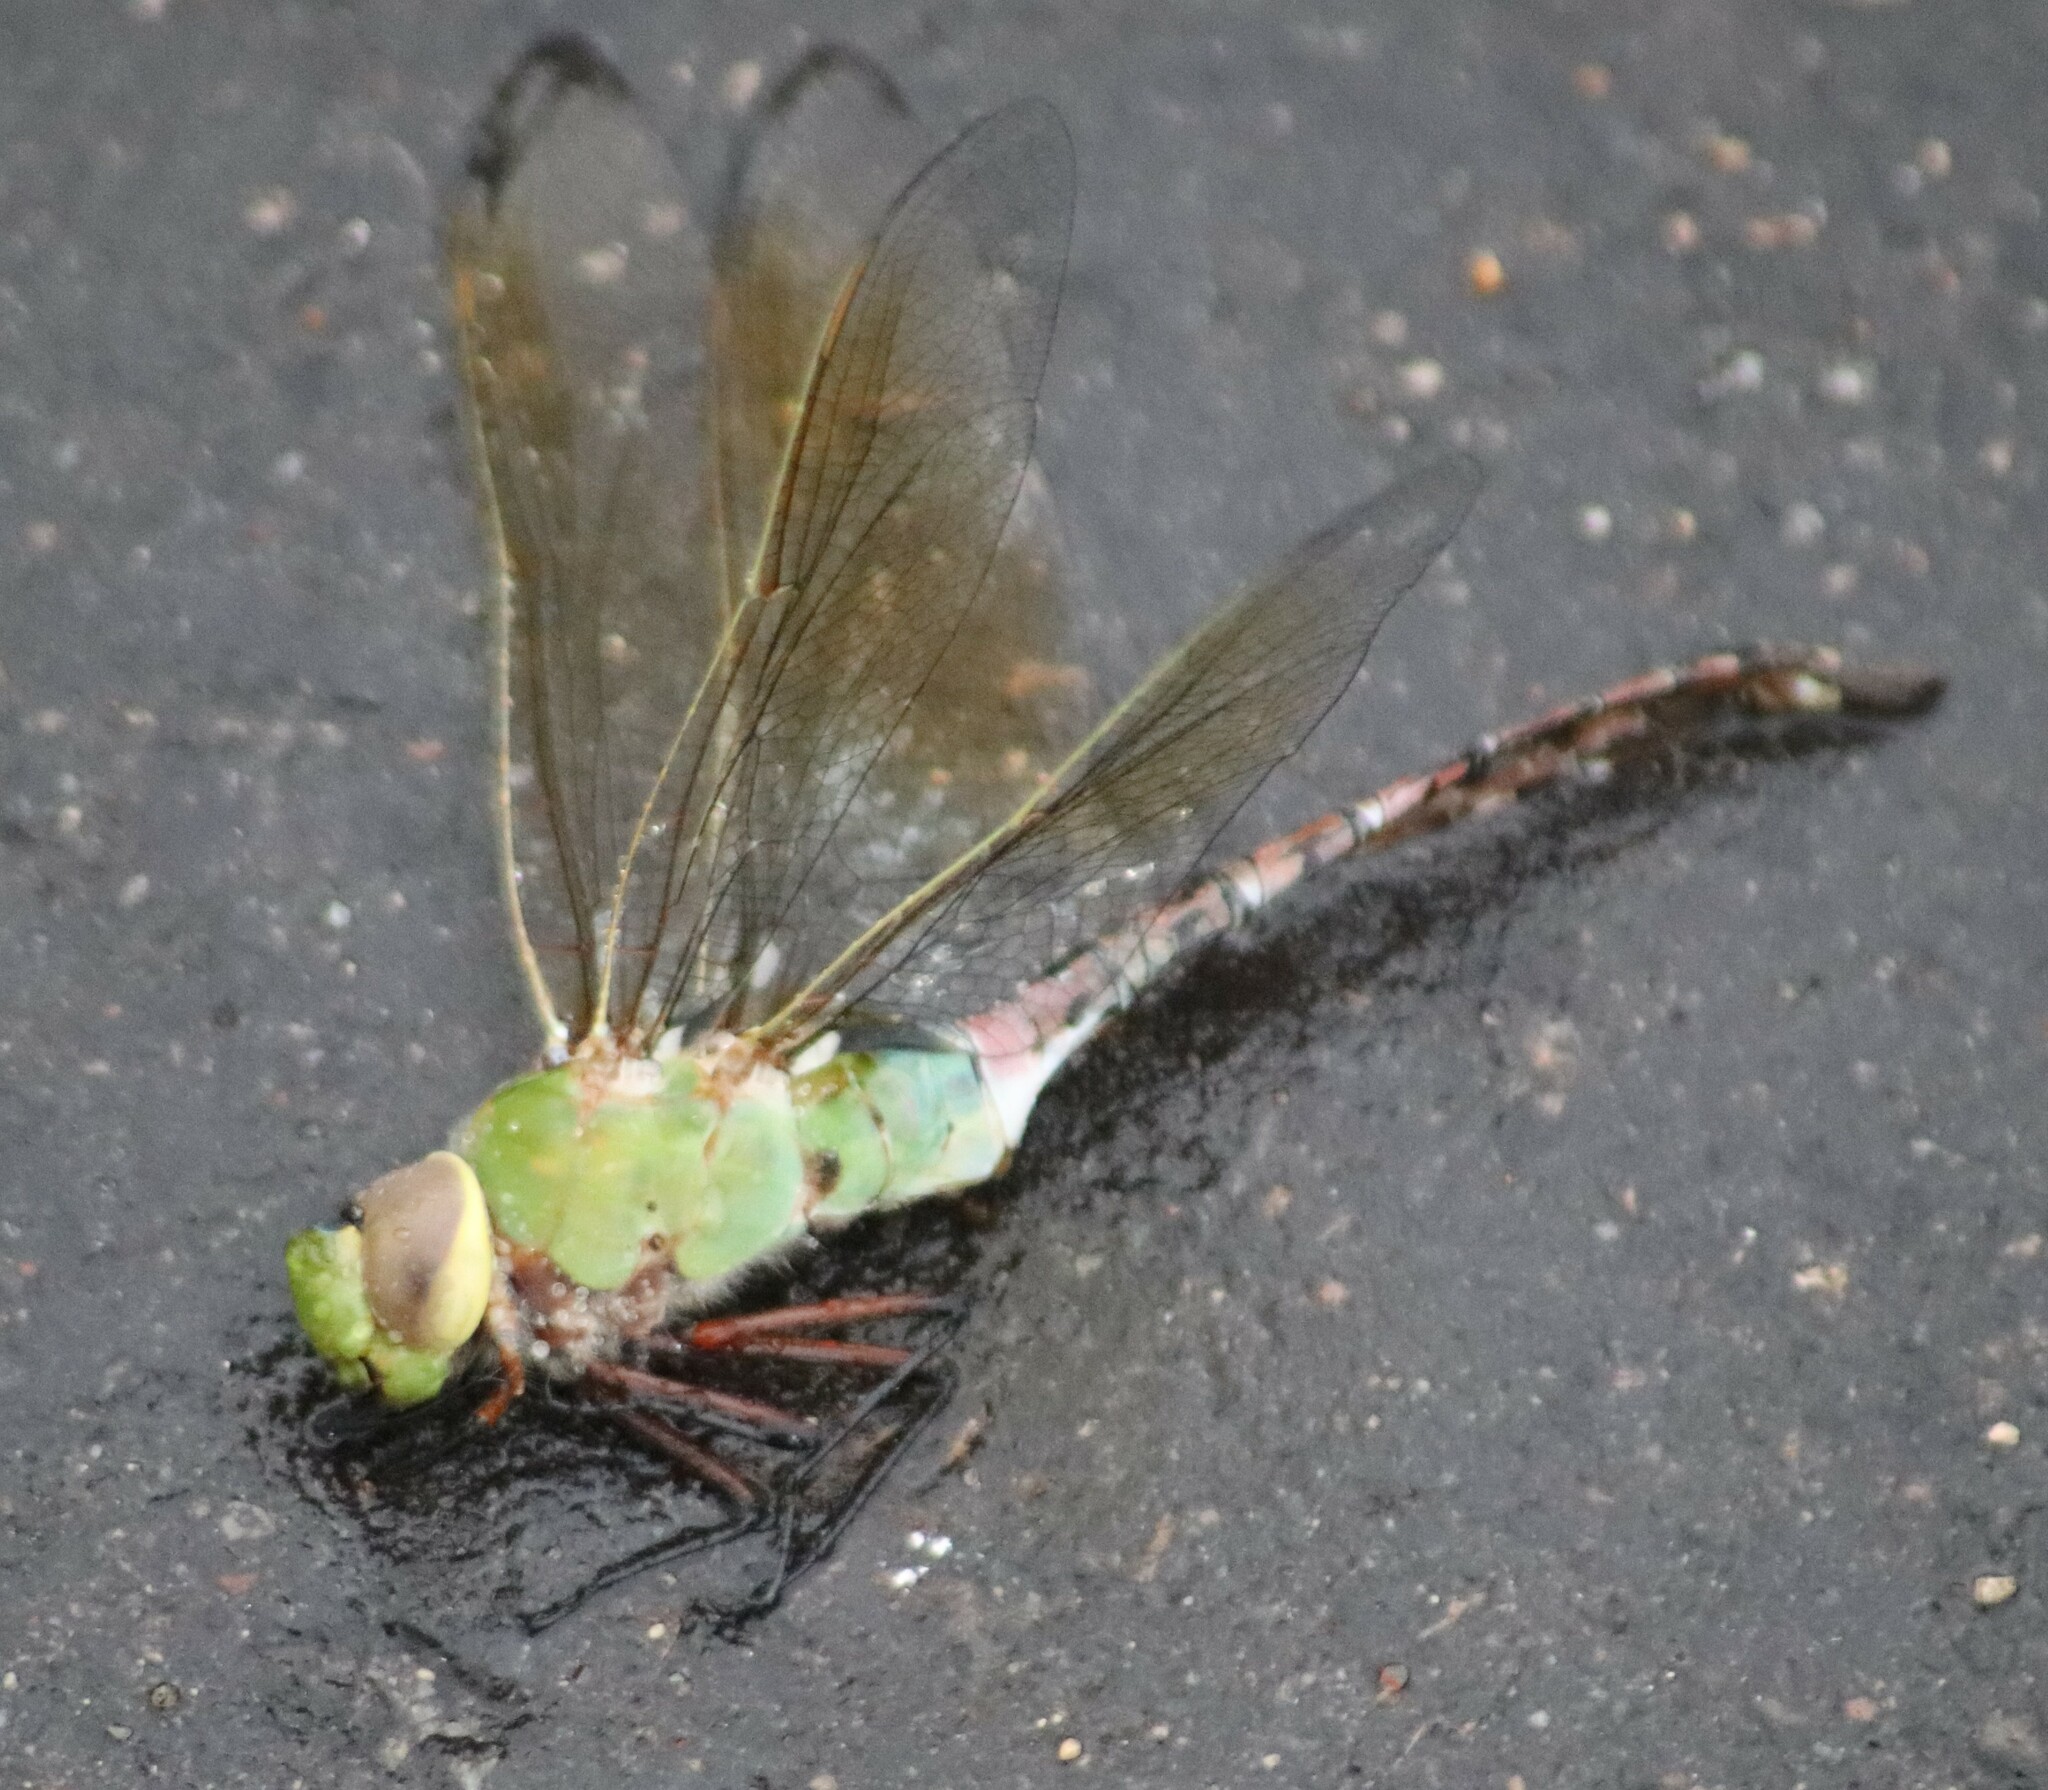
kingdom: Animalia
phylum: Arthropoda
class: Insecta
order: Odonata
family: Aeshnidae
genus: Anax
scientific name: Anax junius
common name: Common green darner
